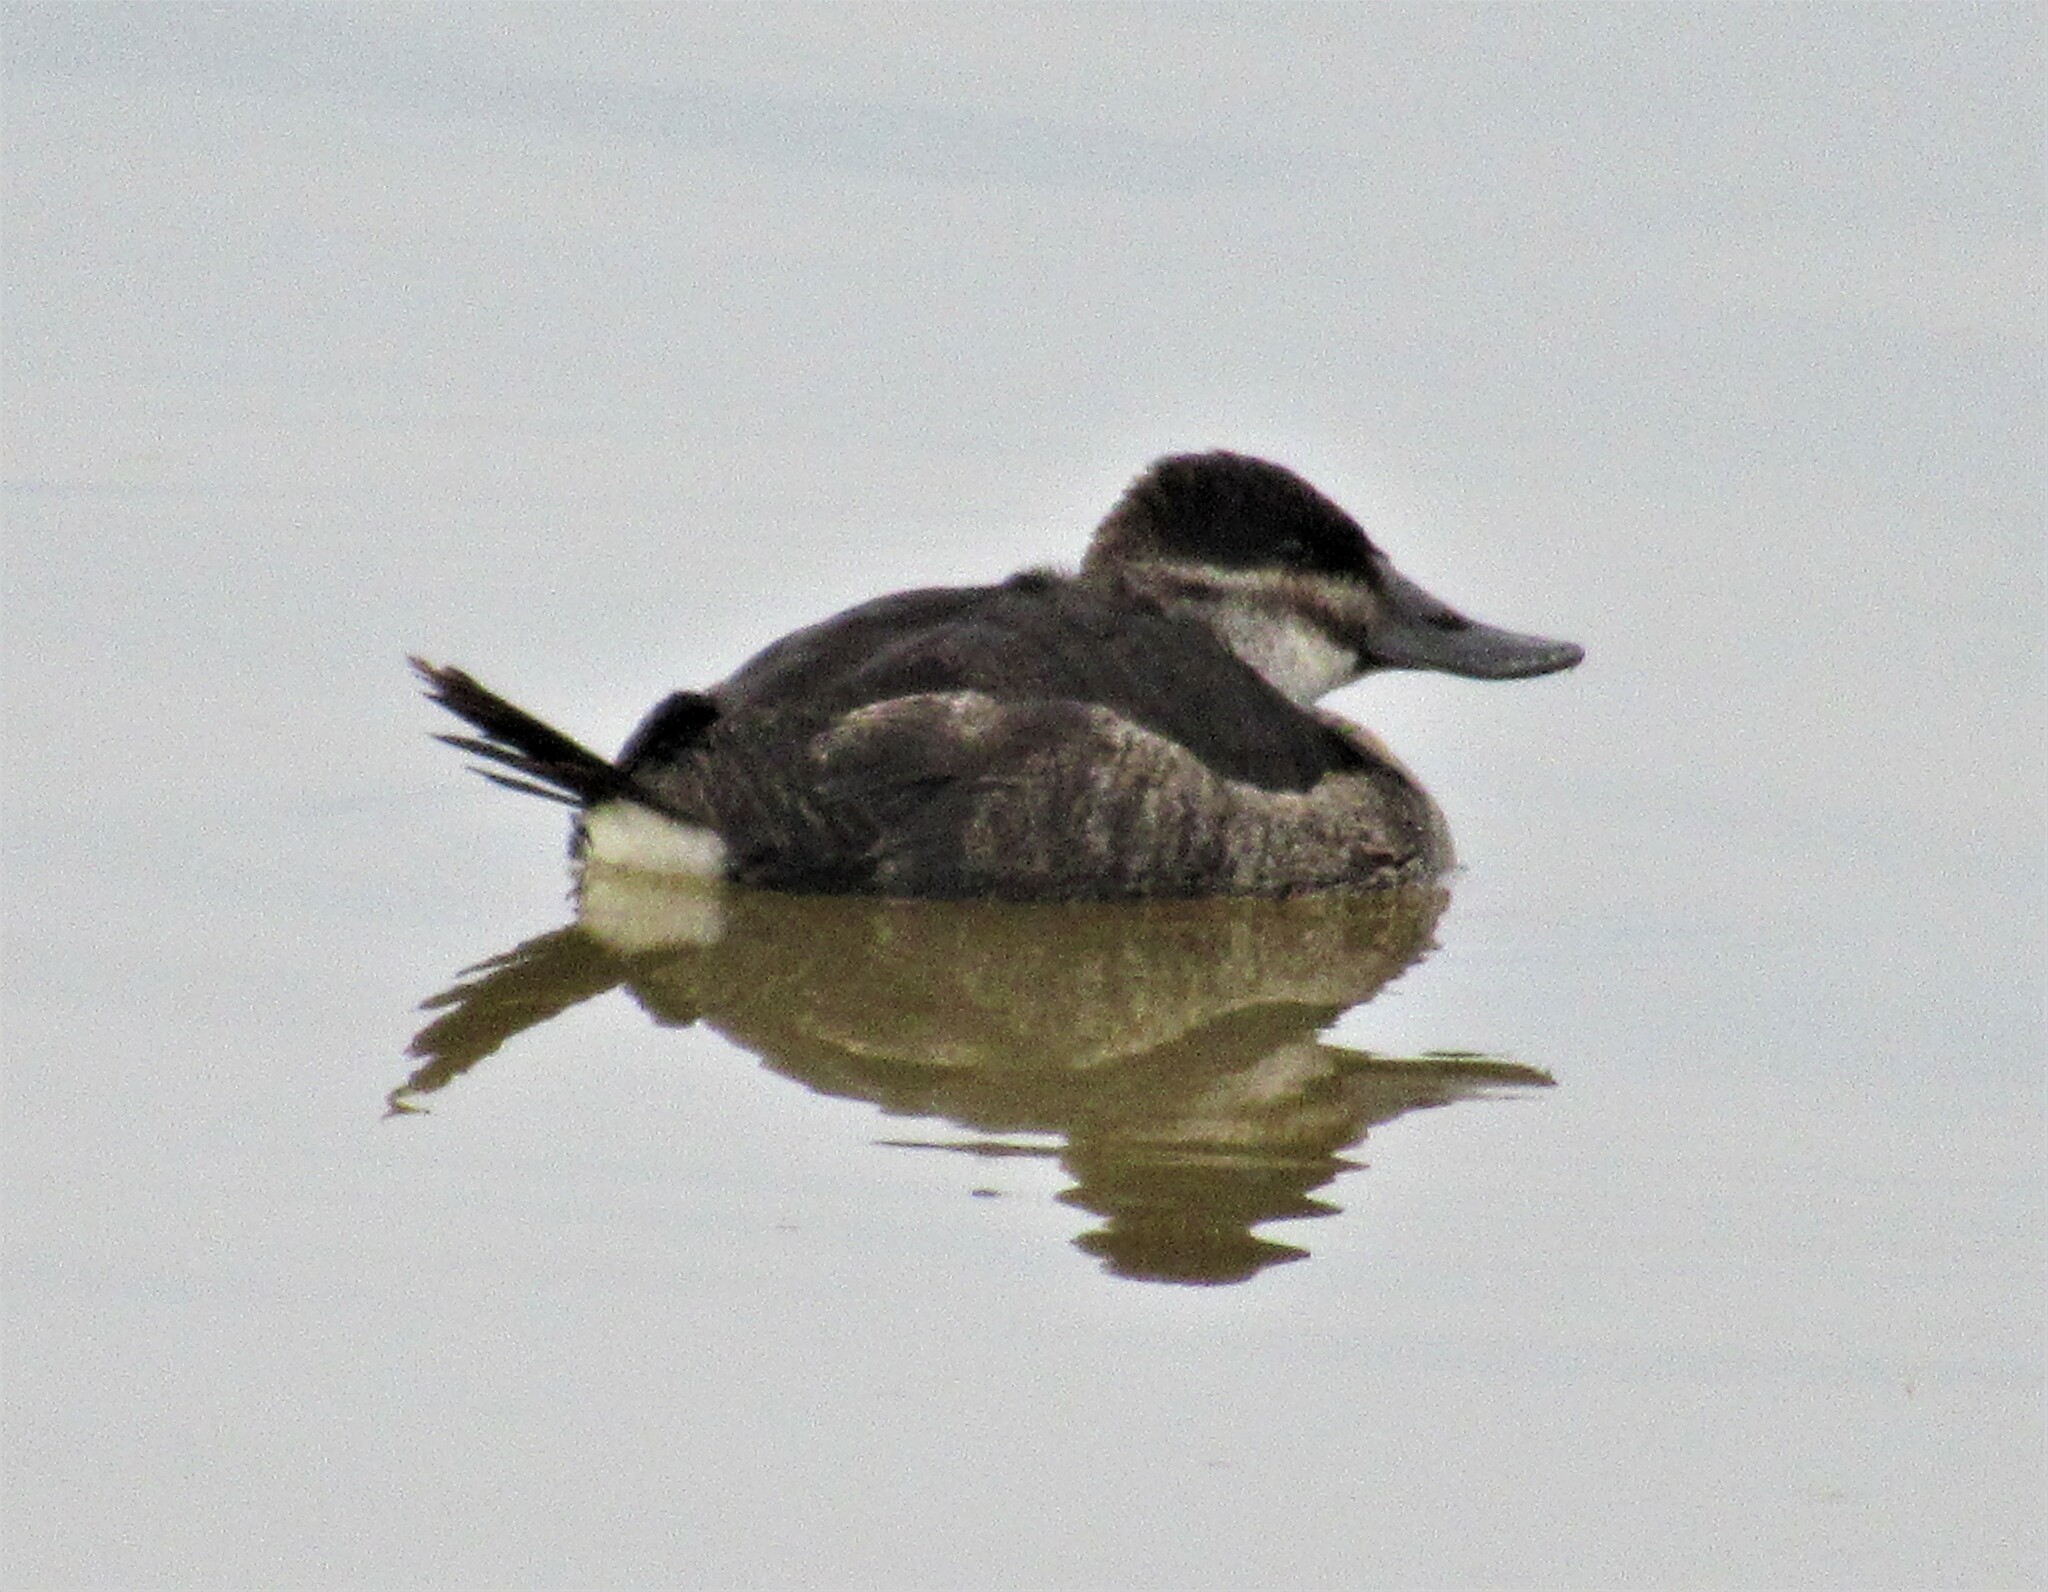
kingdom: Animalia
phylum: Chordata
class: Aves
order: Anseriformes
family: Anatidae
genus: Oxyura
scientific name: Oxyura jamaicensis
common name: Ruddy duck
